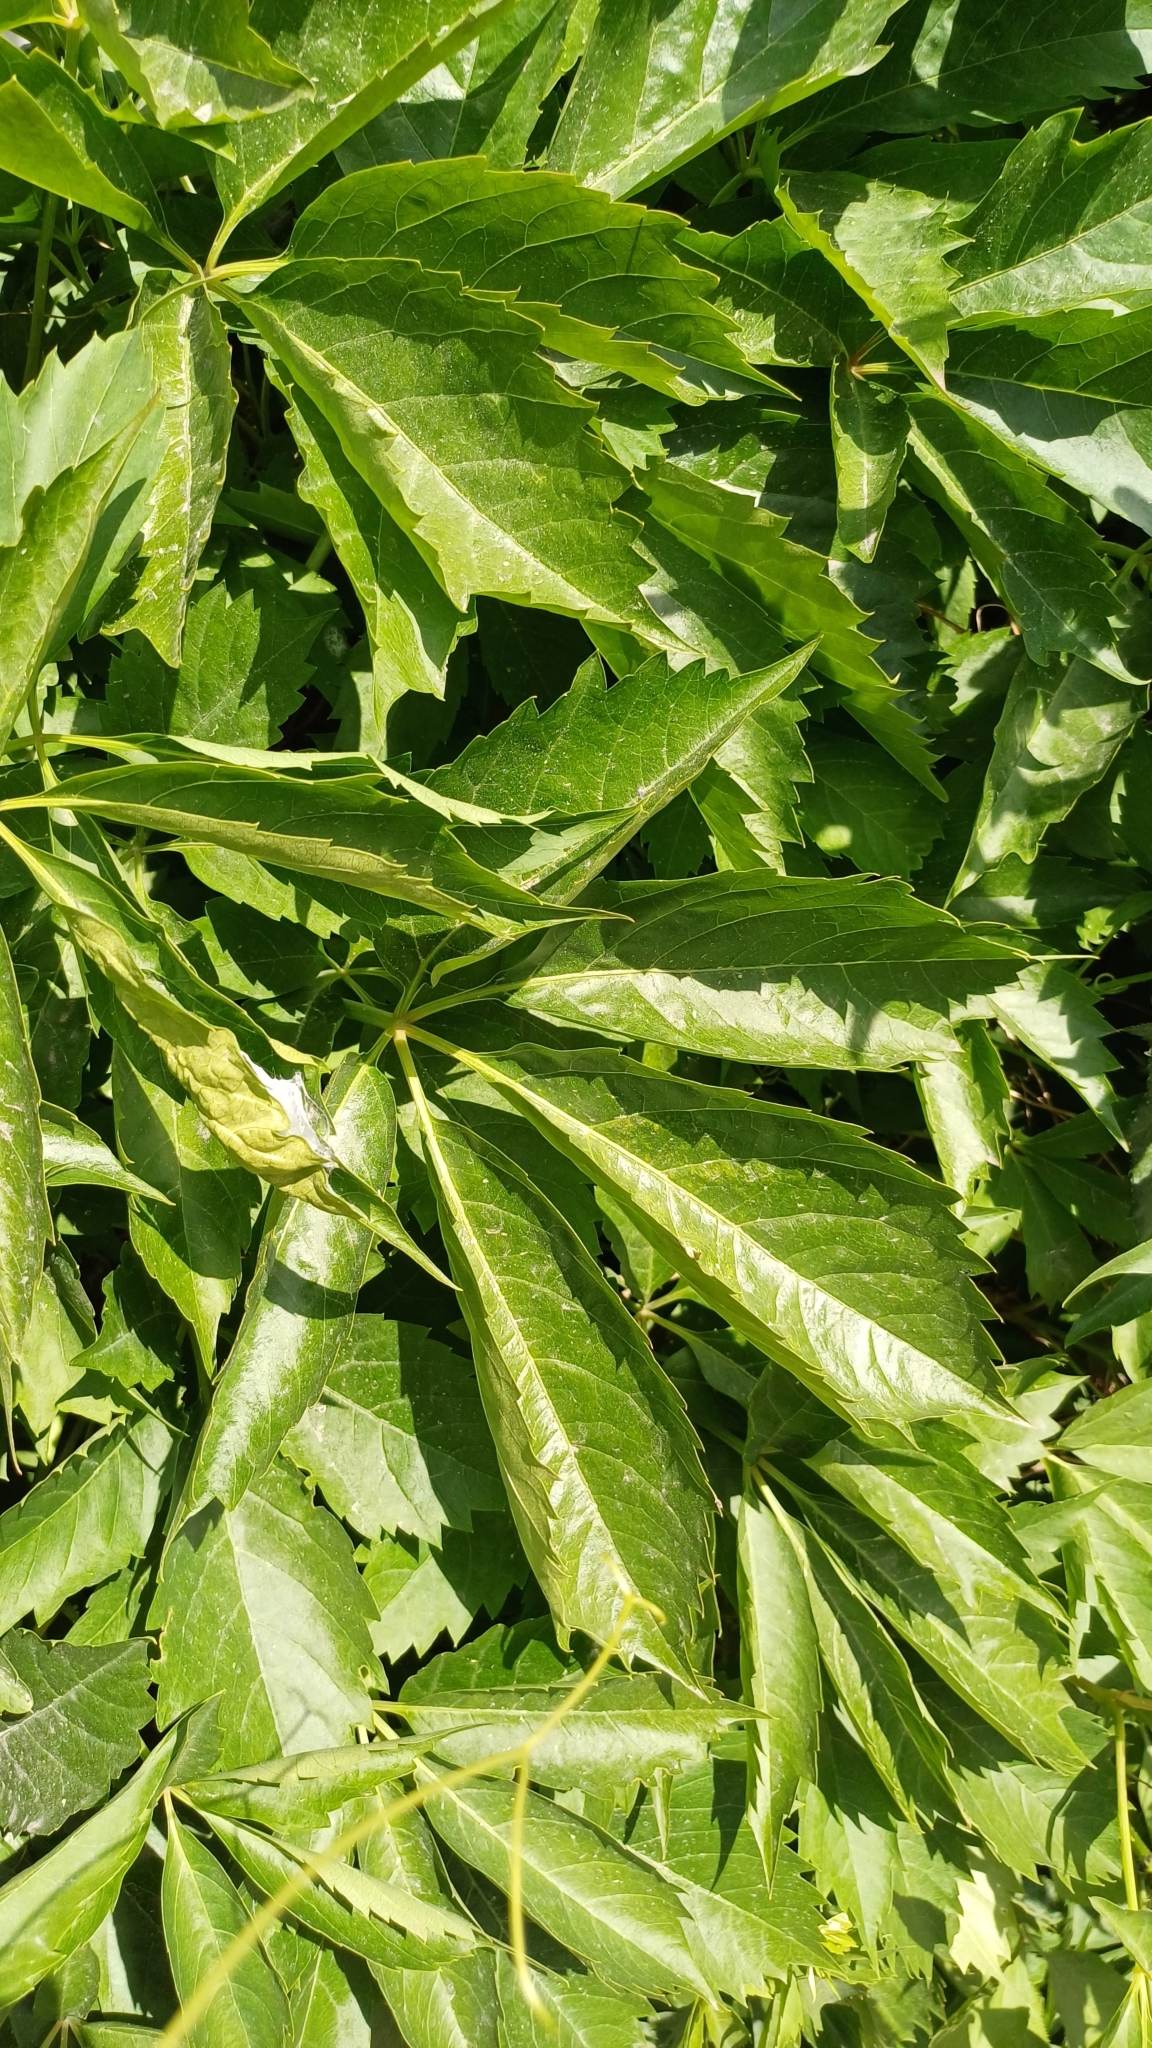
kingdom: Plantae
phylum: Tracheophyta
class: Magnoliopsida
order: Vitales
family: Vitaceae
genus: Parthenocissus
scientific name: Parthenocissus quinquefolia
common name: Virginia-creeper
